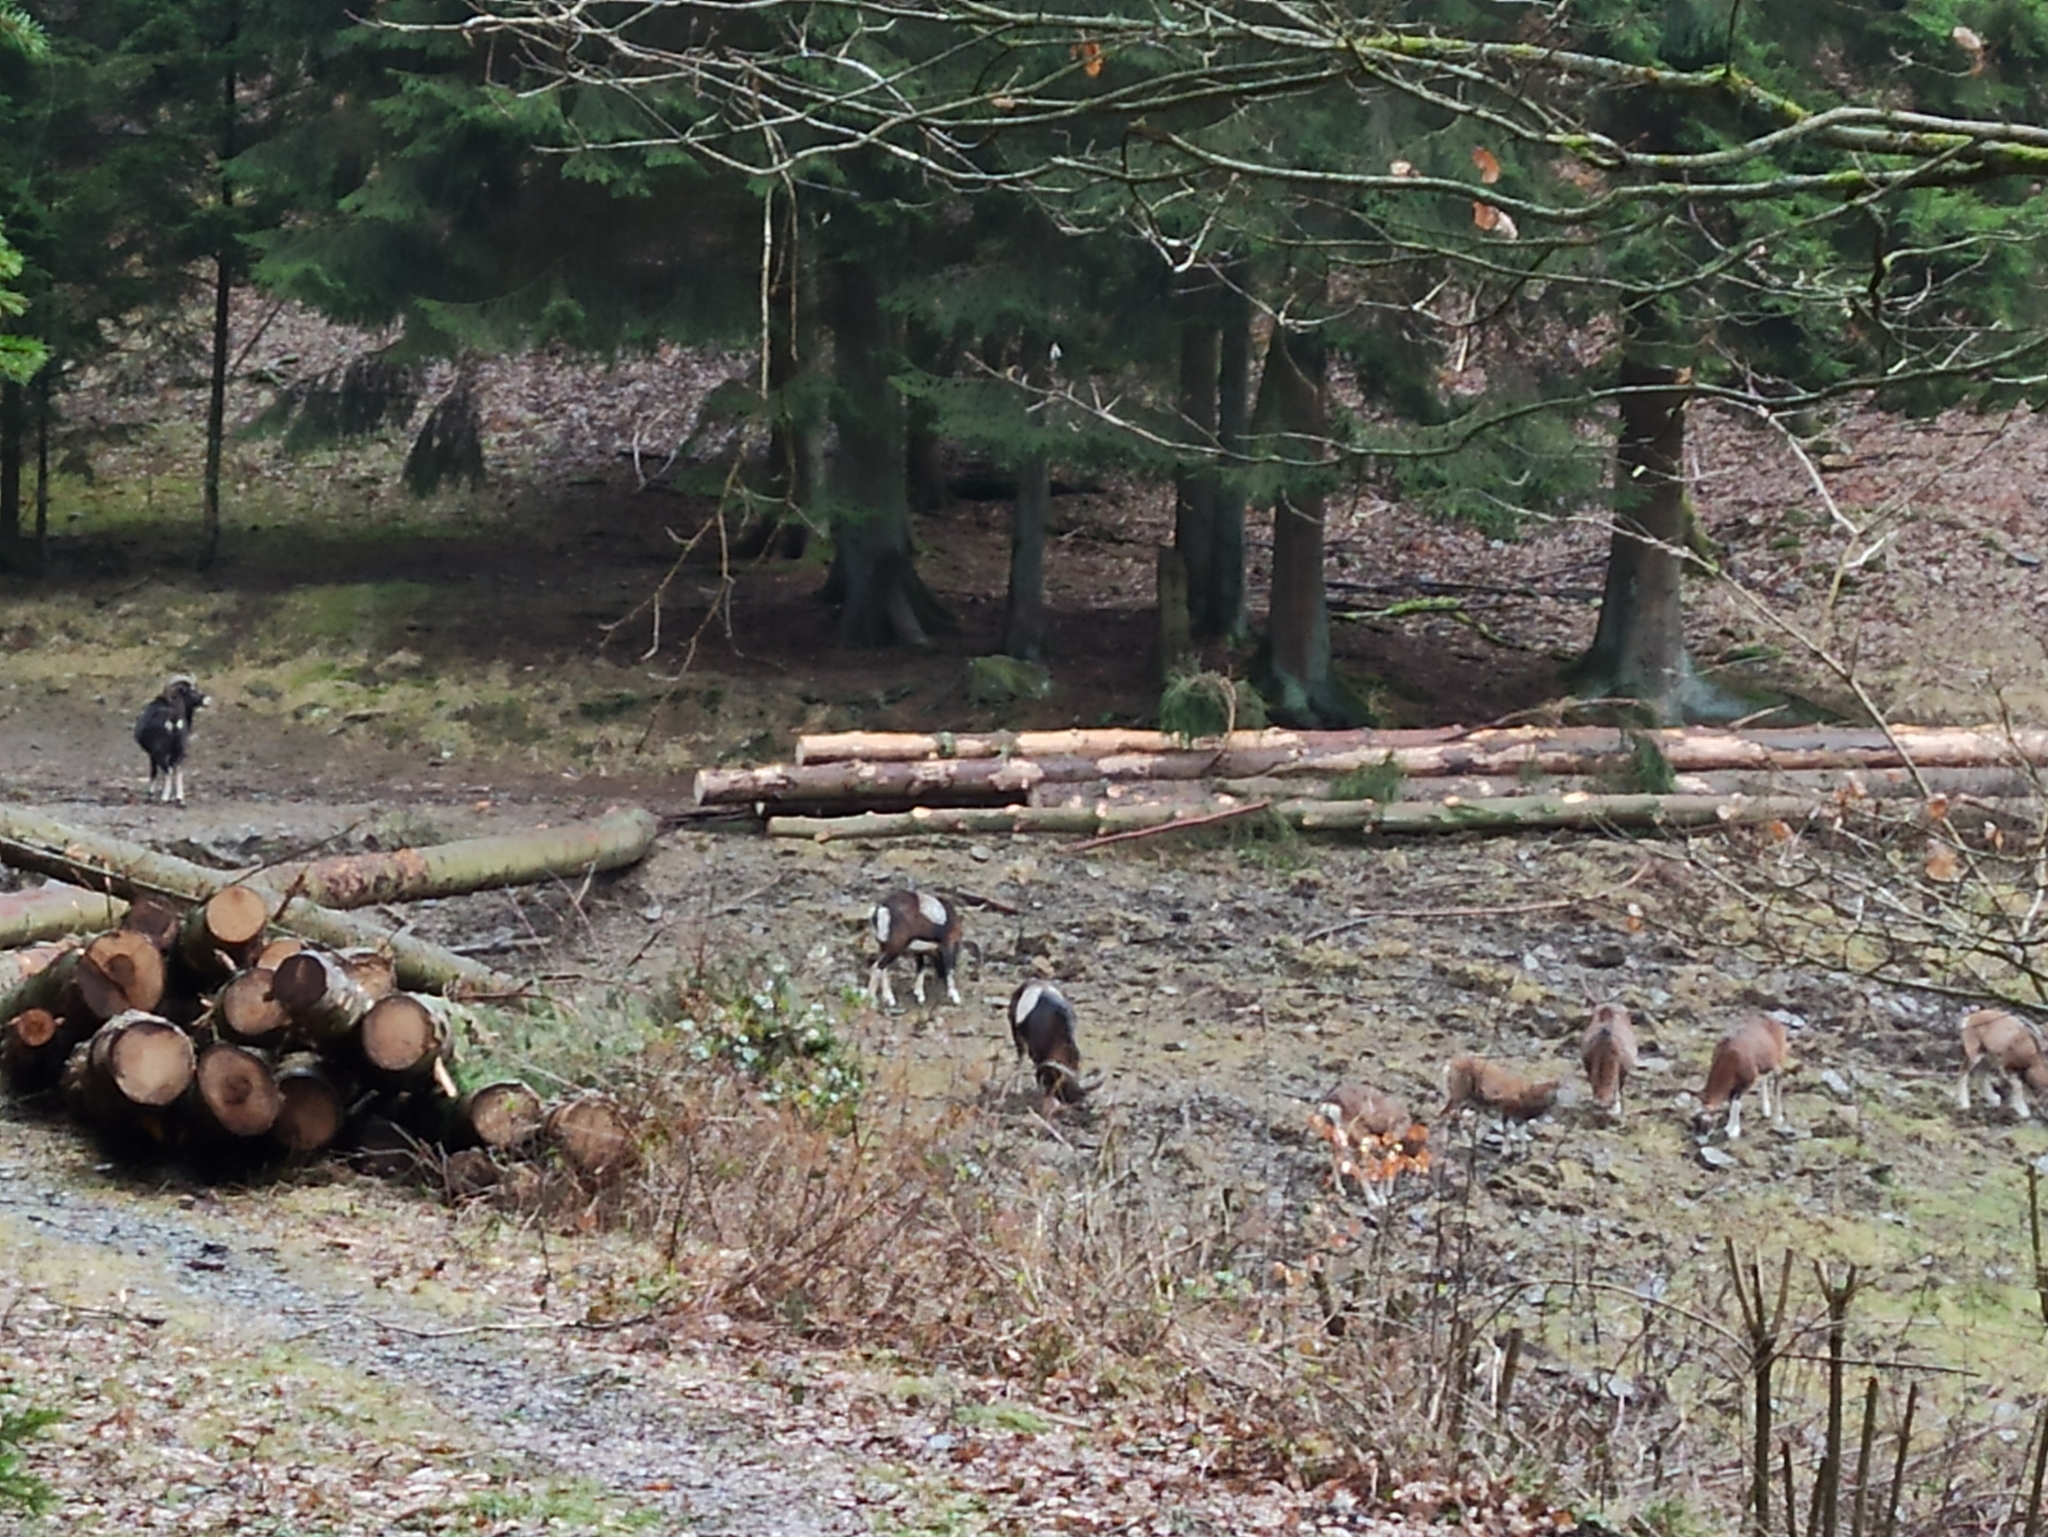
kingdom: Animalia
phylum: Chordata
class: Mammalia
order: Artiodactyla
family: Bovidae
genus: Ovis
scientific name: Ovis aries
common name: Domestic sheep
